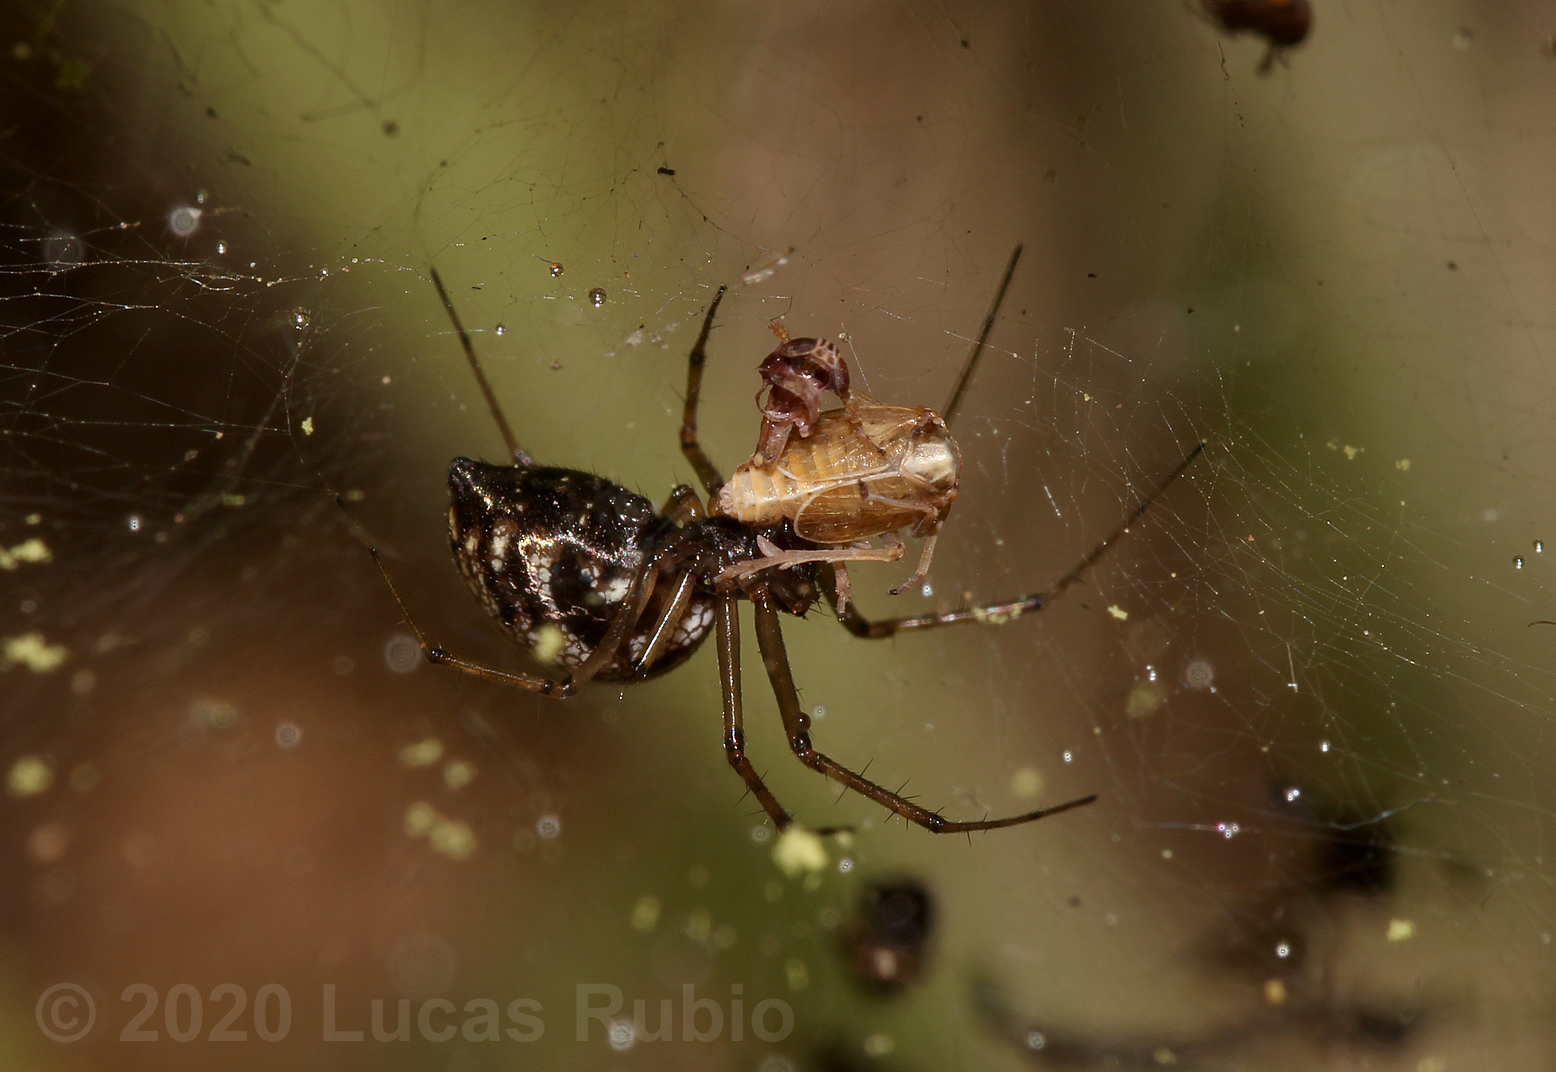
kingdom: Animalia
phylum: Arthropoda
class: Arachnida
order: Araneae
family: Linyphiidae
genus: Dubiaranea
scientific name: Dubiaranea
